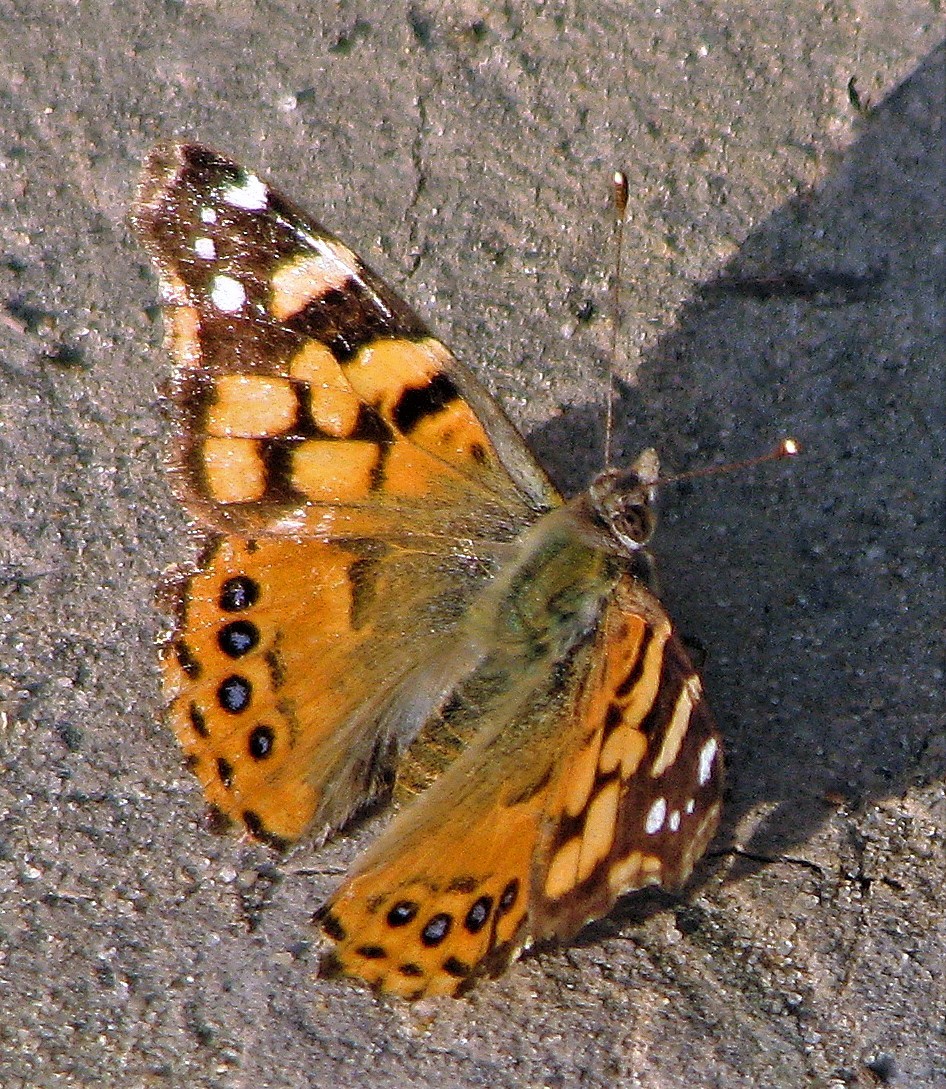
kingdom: Animalia
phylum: Arthropoda
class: Insecta
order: Lepidoptera
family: Nymphalidae
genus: Vanessa
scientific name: Vanessa carye
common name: Subtropical lady
